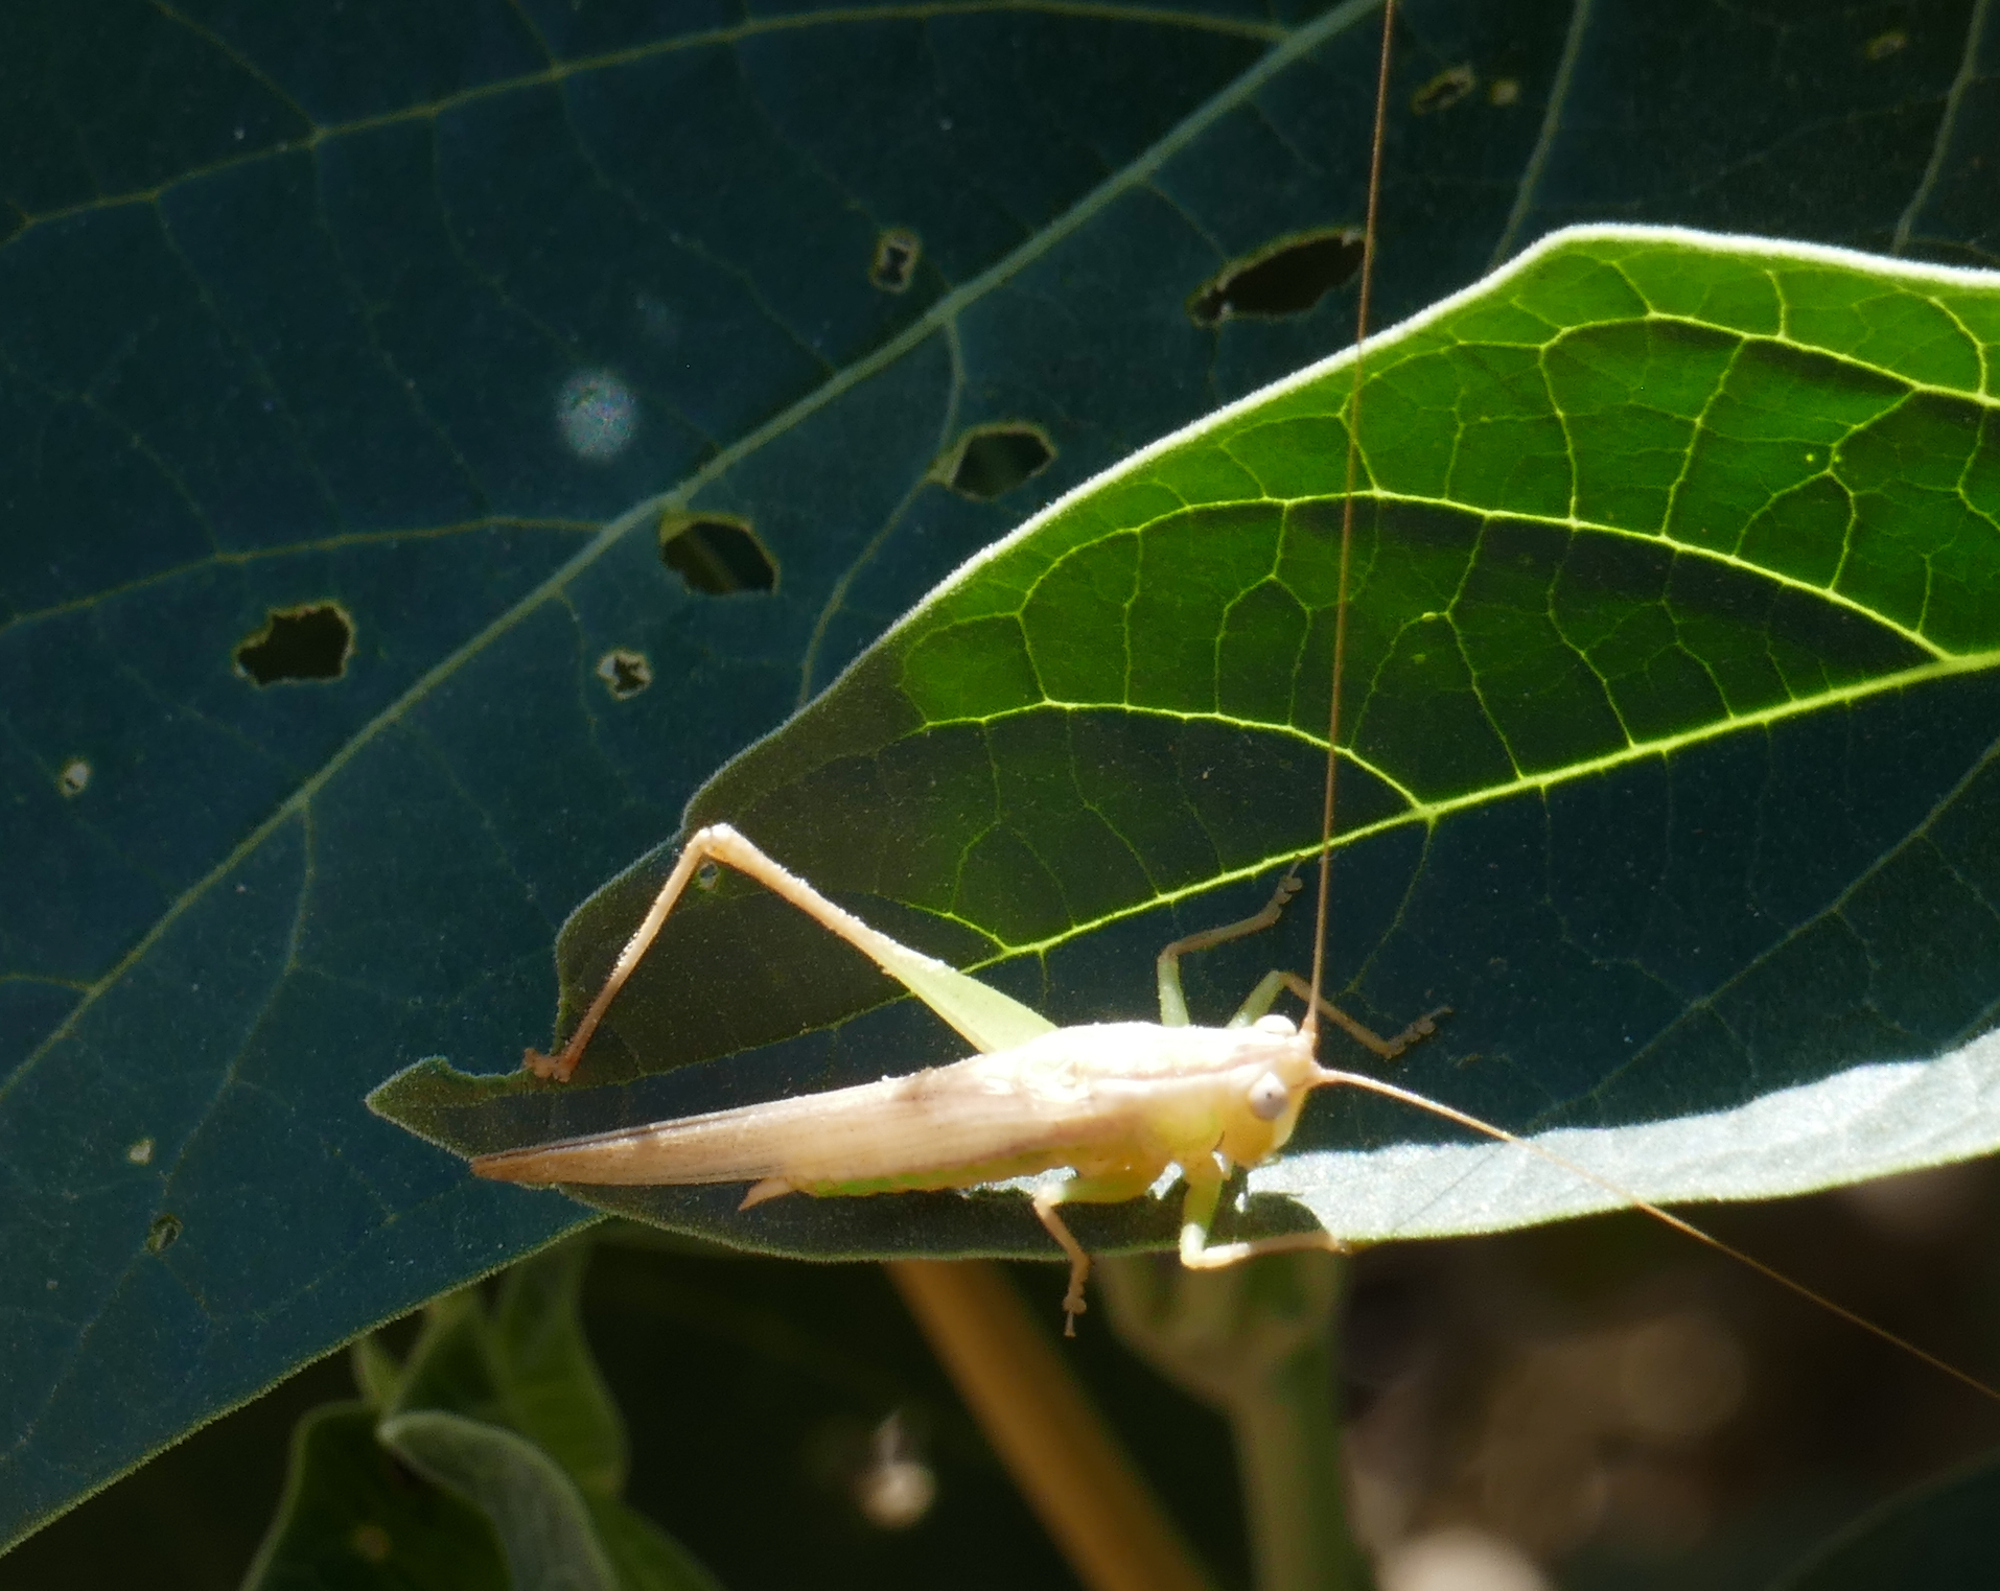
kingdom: Animalia
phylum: Arthropoda
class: Insecta
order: Orthoptera
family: Tettigoniidae
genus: Orchelimum
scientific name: Orchelimum unispina
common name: Arizona meadow katydid
